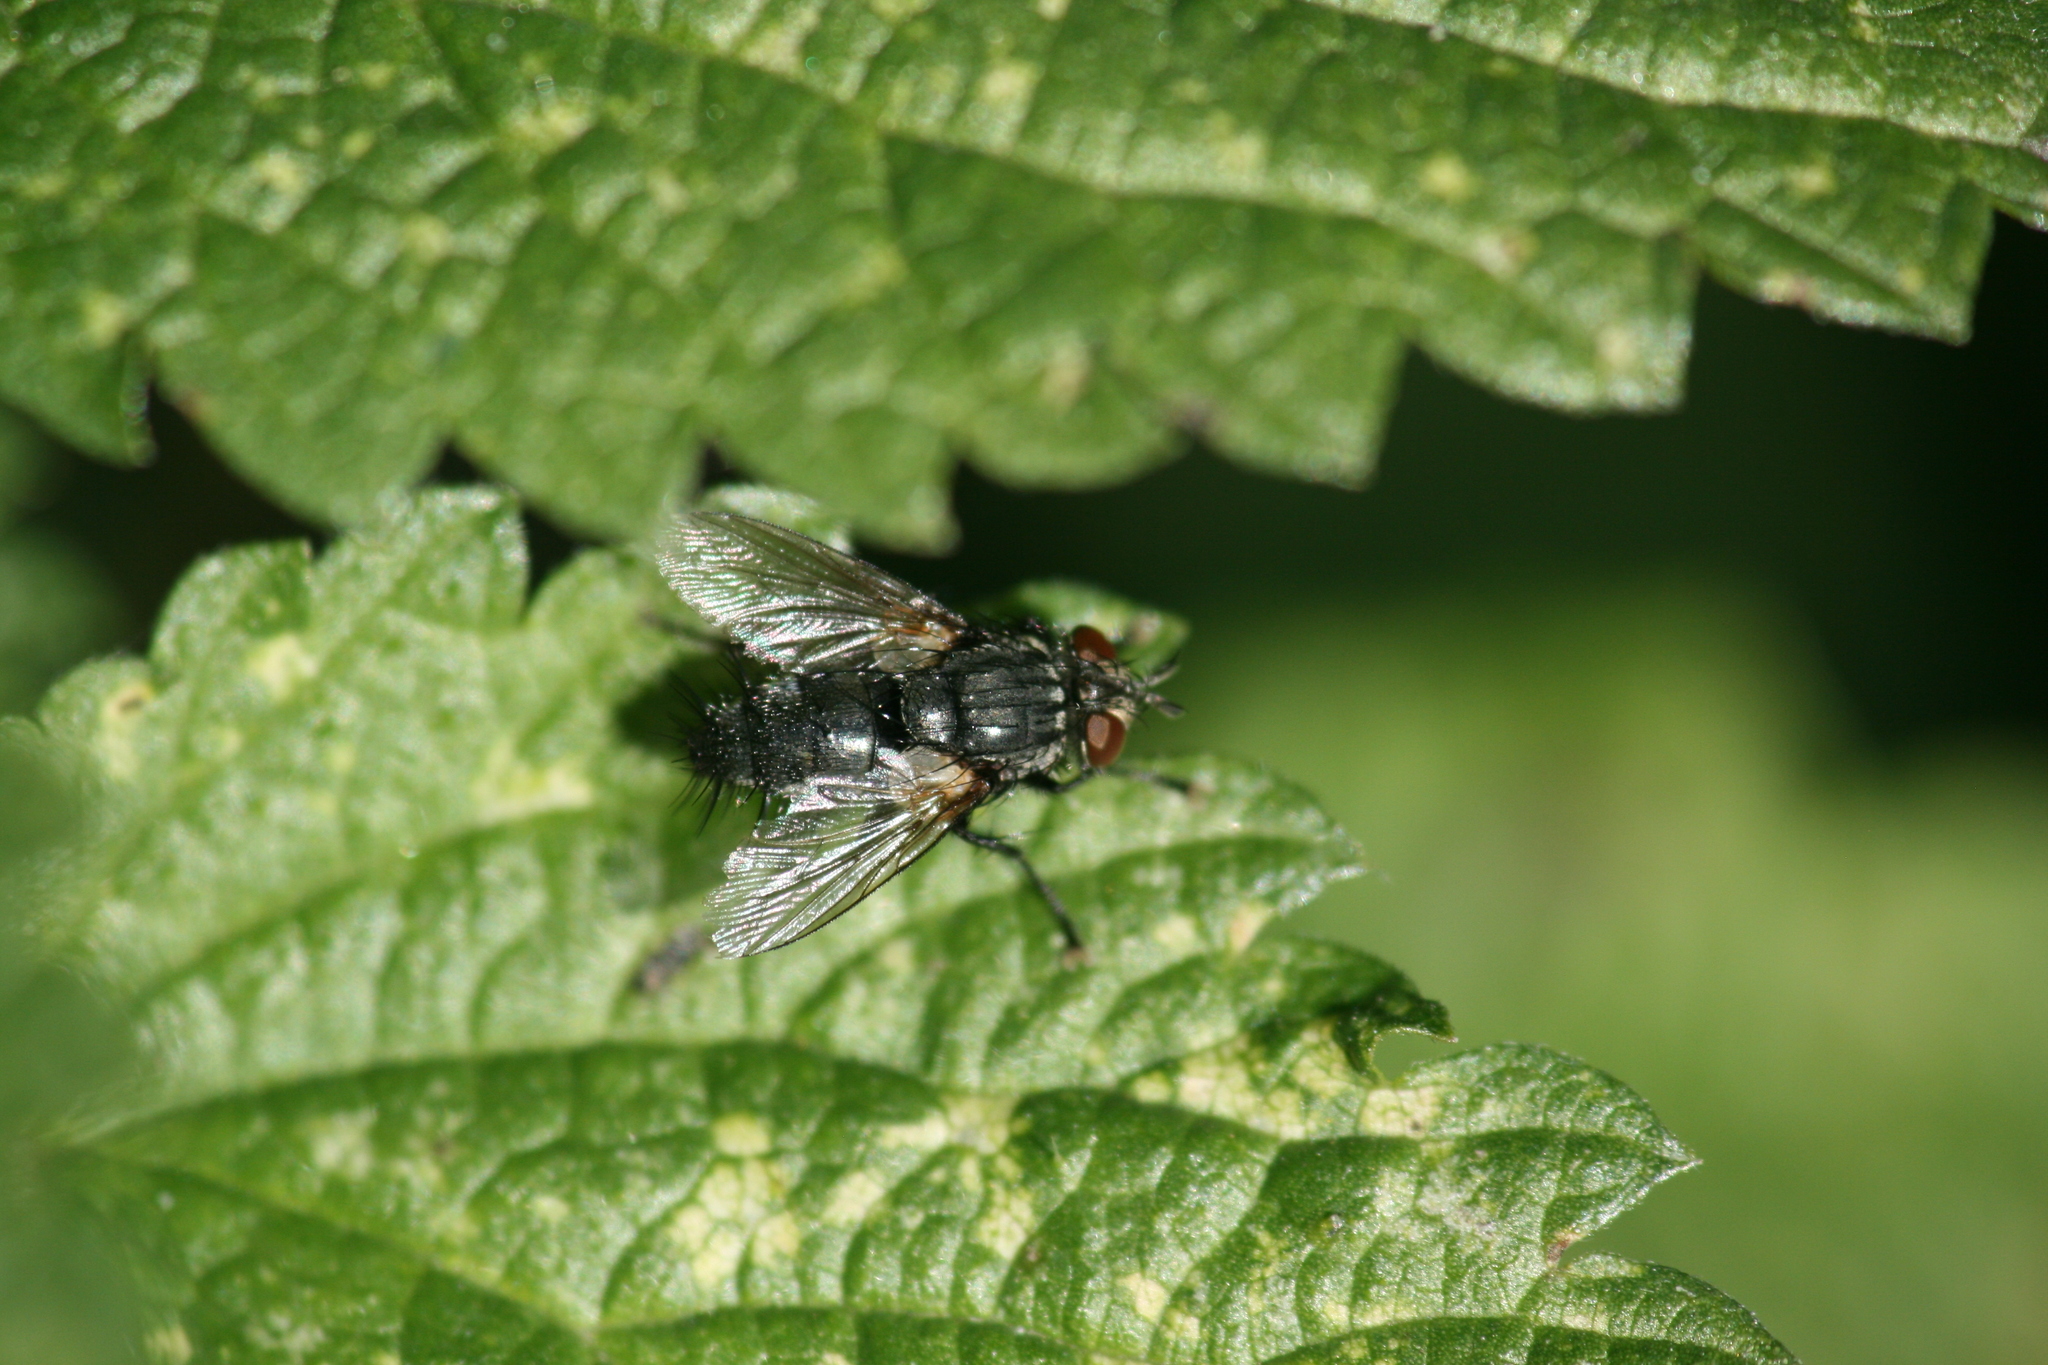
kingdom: Animalia
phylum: Arthropoda
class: Insecta
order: Diptera
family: Tachinidae
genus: Voria
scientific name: Voria ruralis
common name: Parasitic fly
